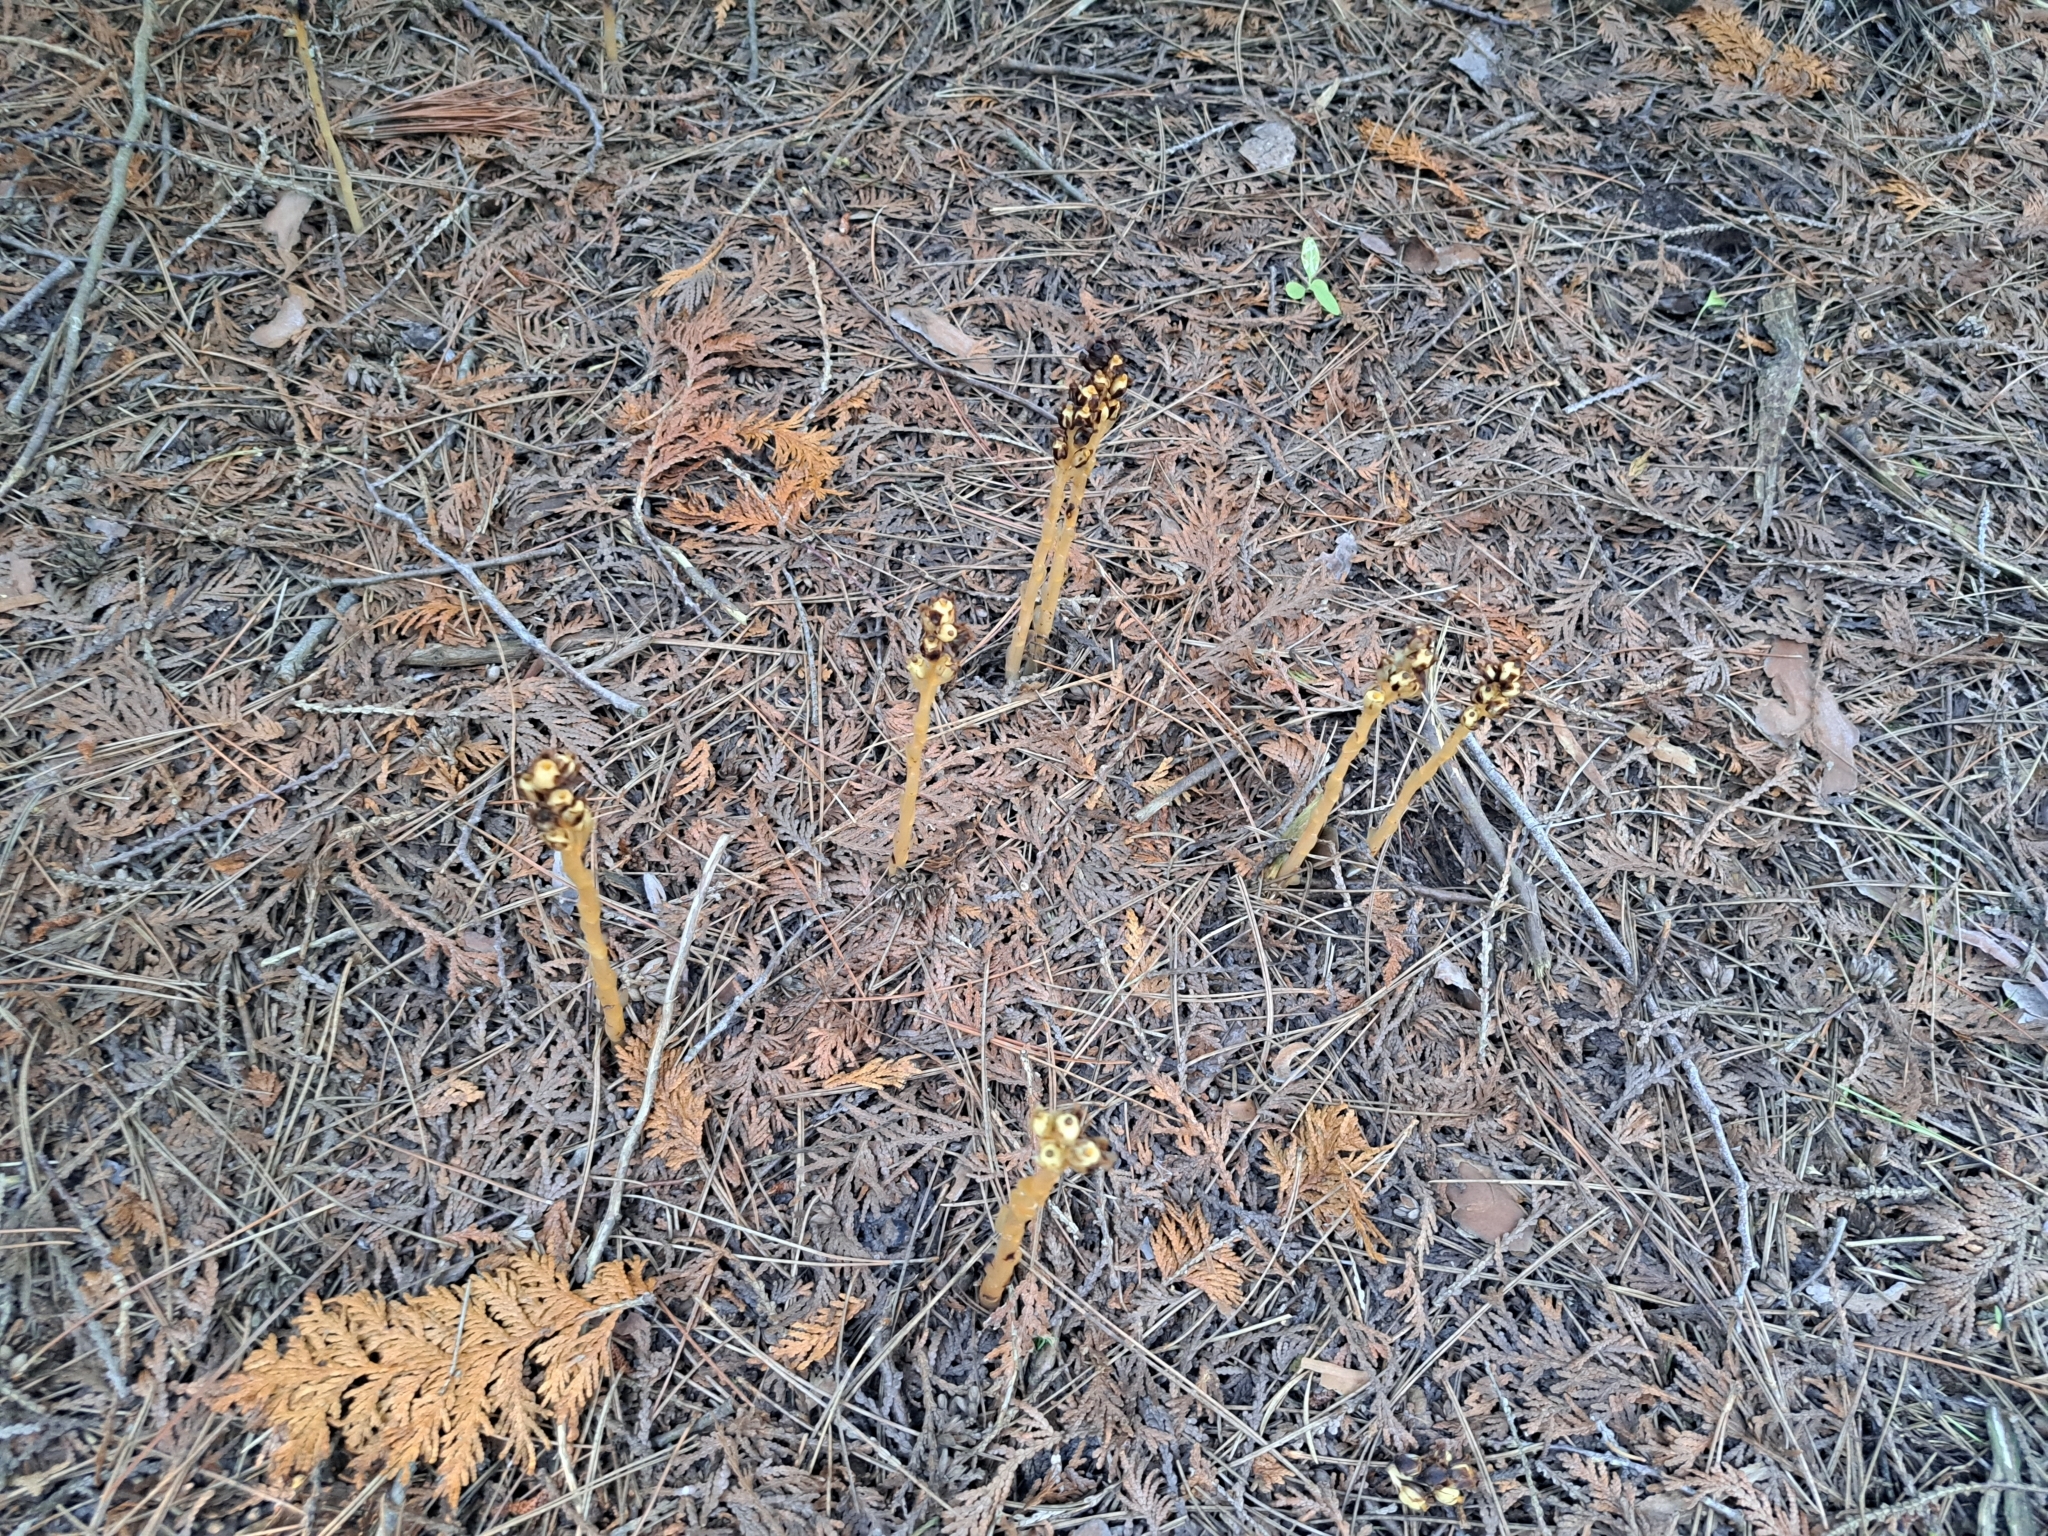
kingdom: Plantae
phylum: Tracheophyta
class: Magnoliopsida
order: Ericales
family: Ericaceae
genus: Hypopitys
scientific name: Hypopitys monotropa
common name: Yellow bird's-nest
